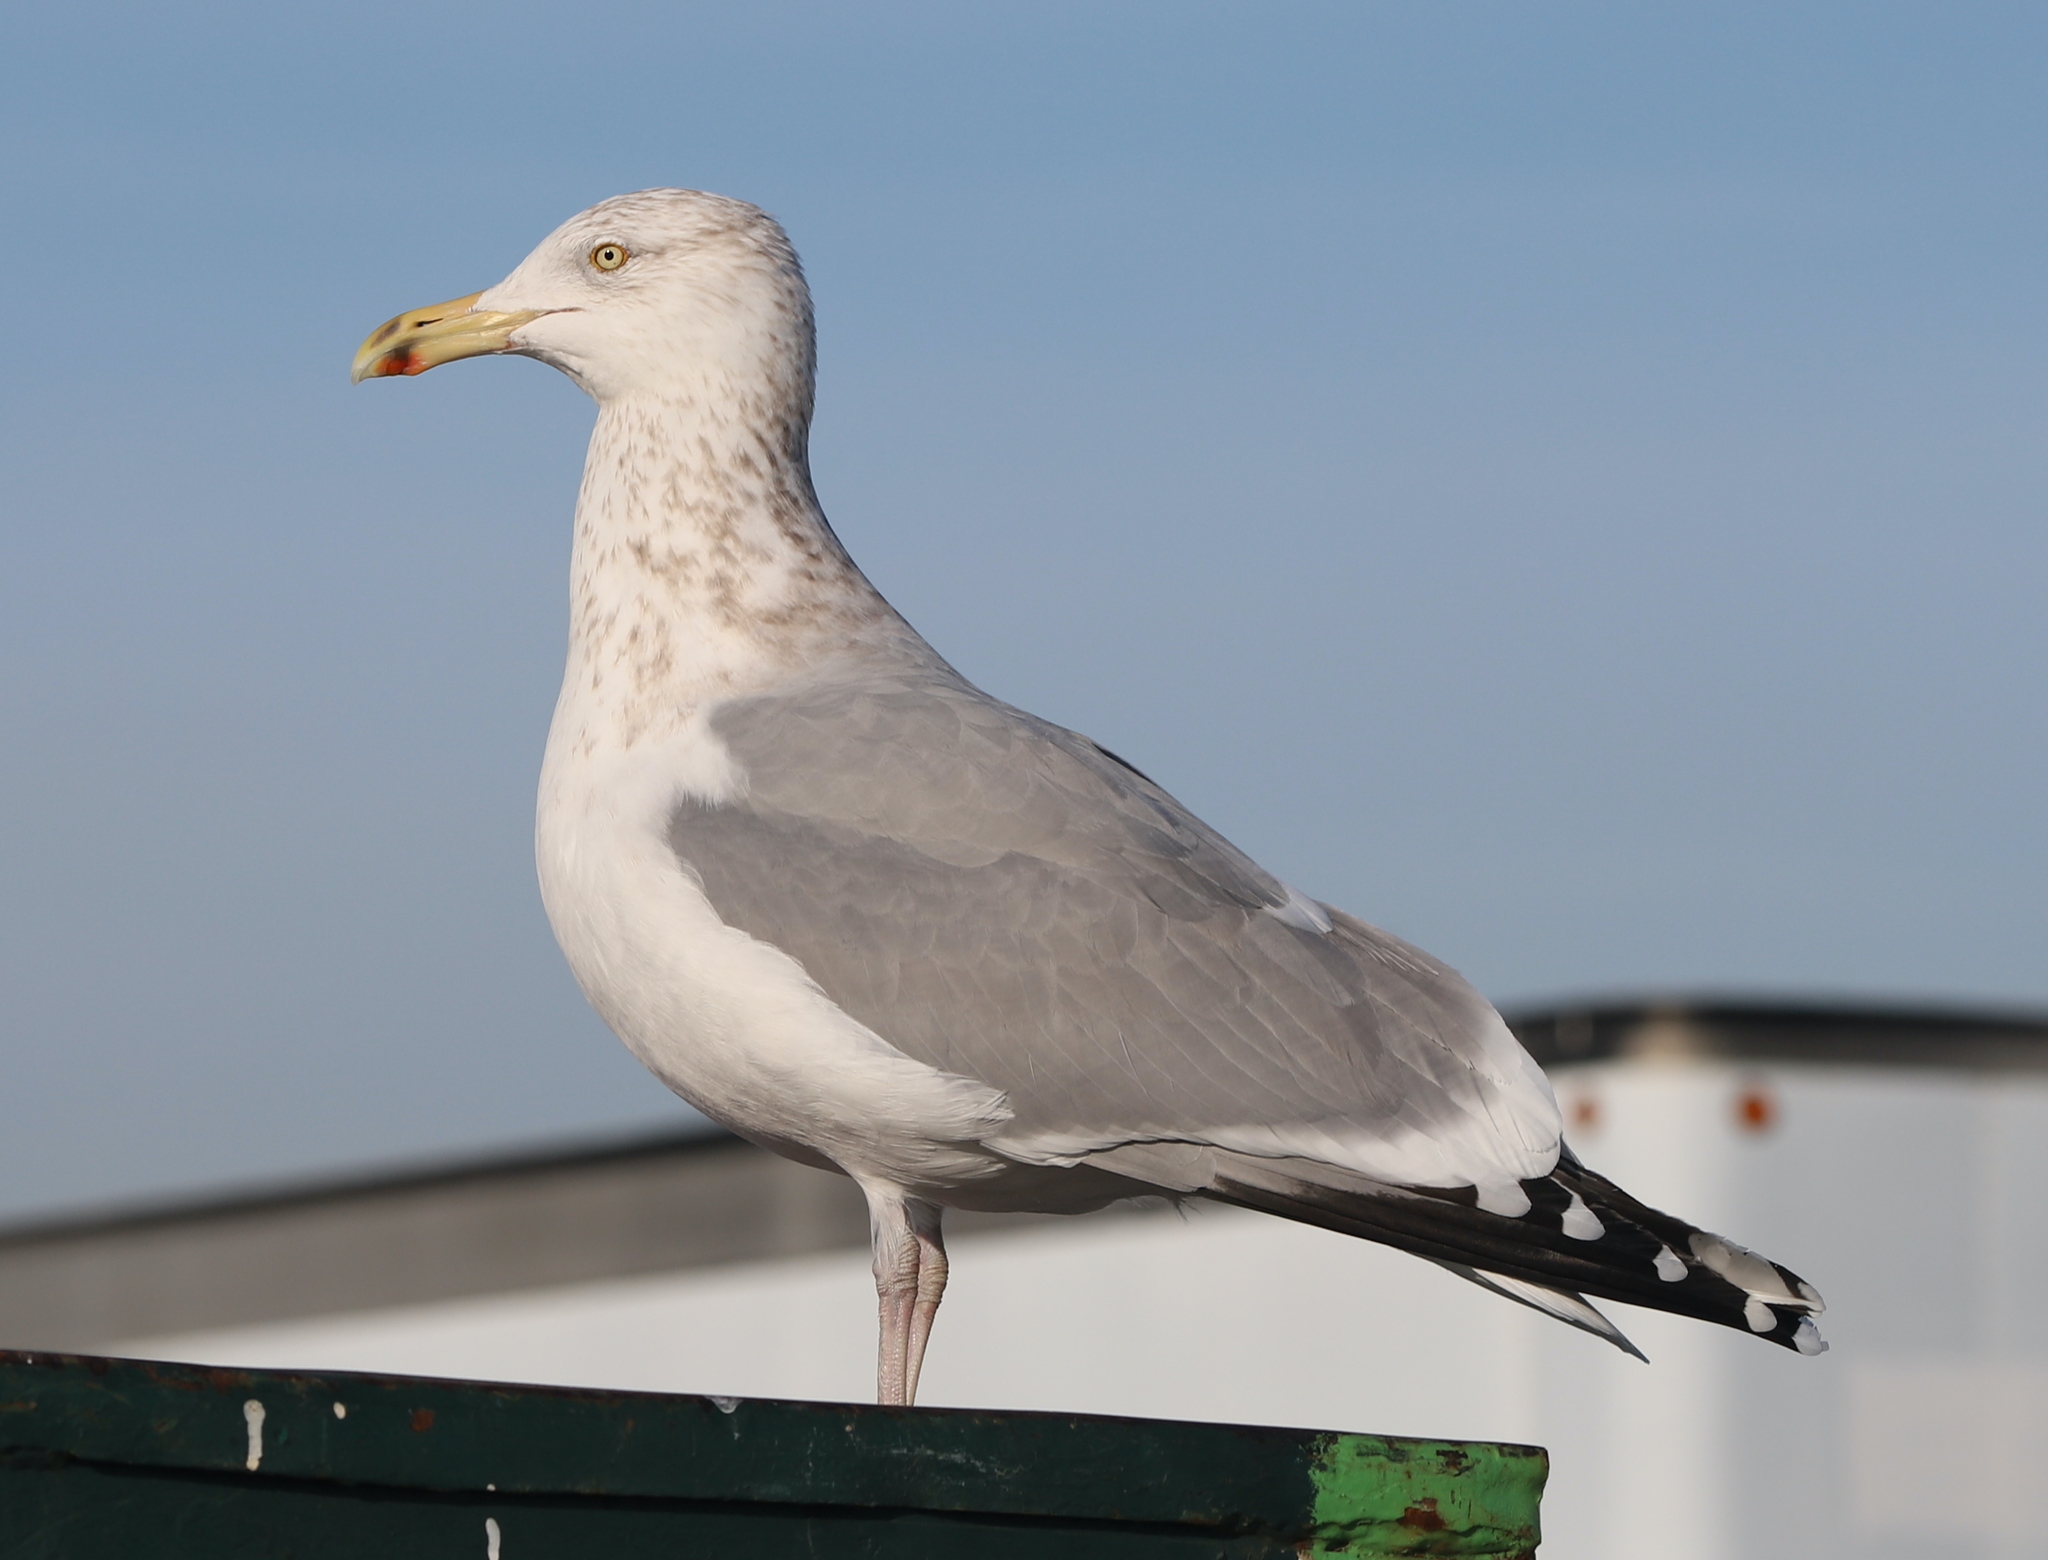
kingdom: Animalia
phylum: Chordata
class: Aves
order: Charadriiformes
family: Laridae
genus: Larus
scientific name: Larus argentatus
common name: Herring gull
